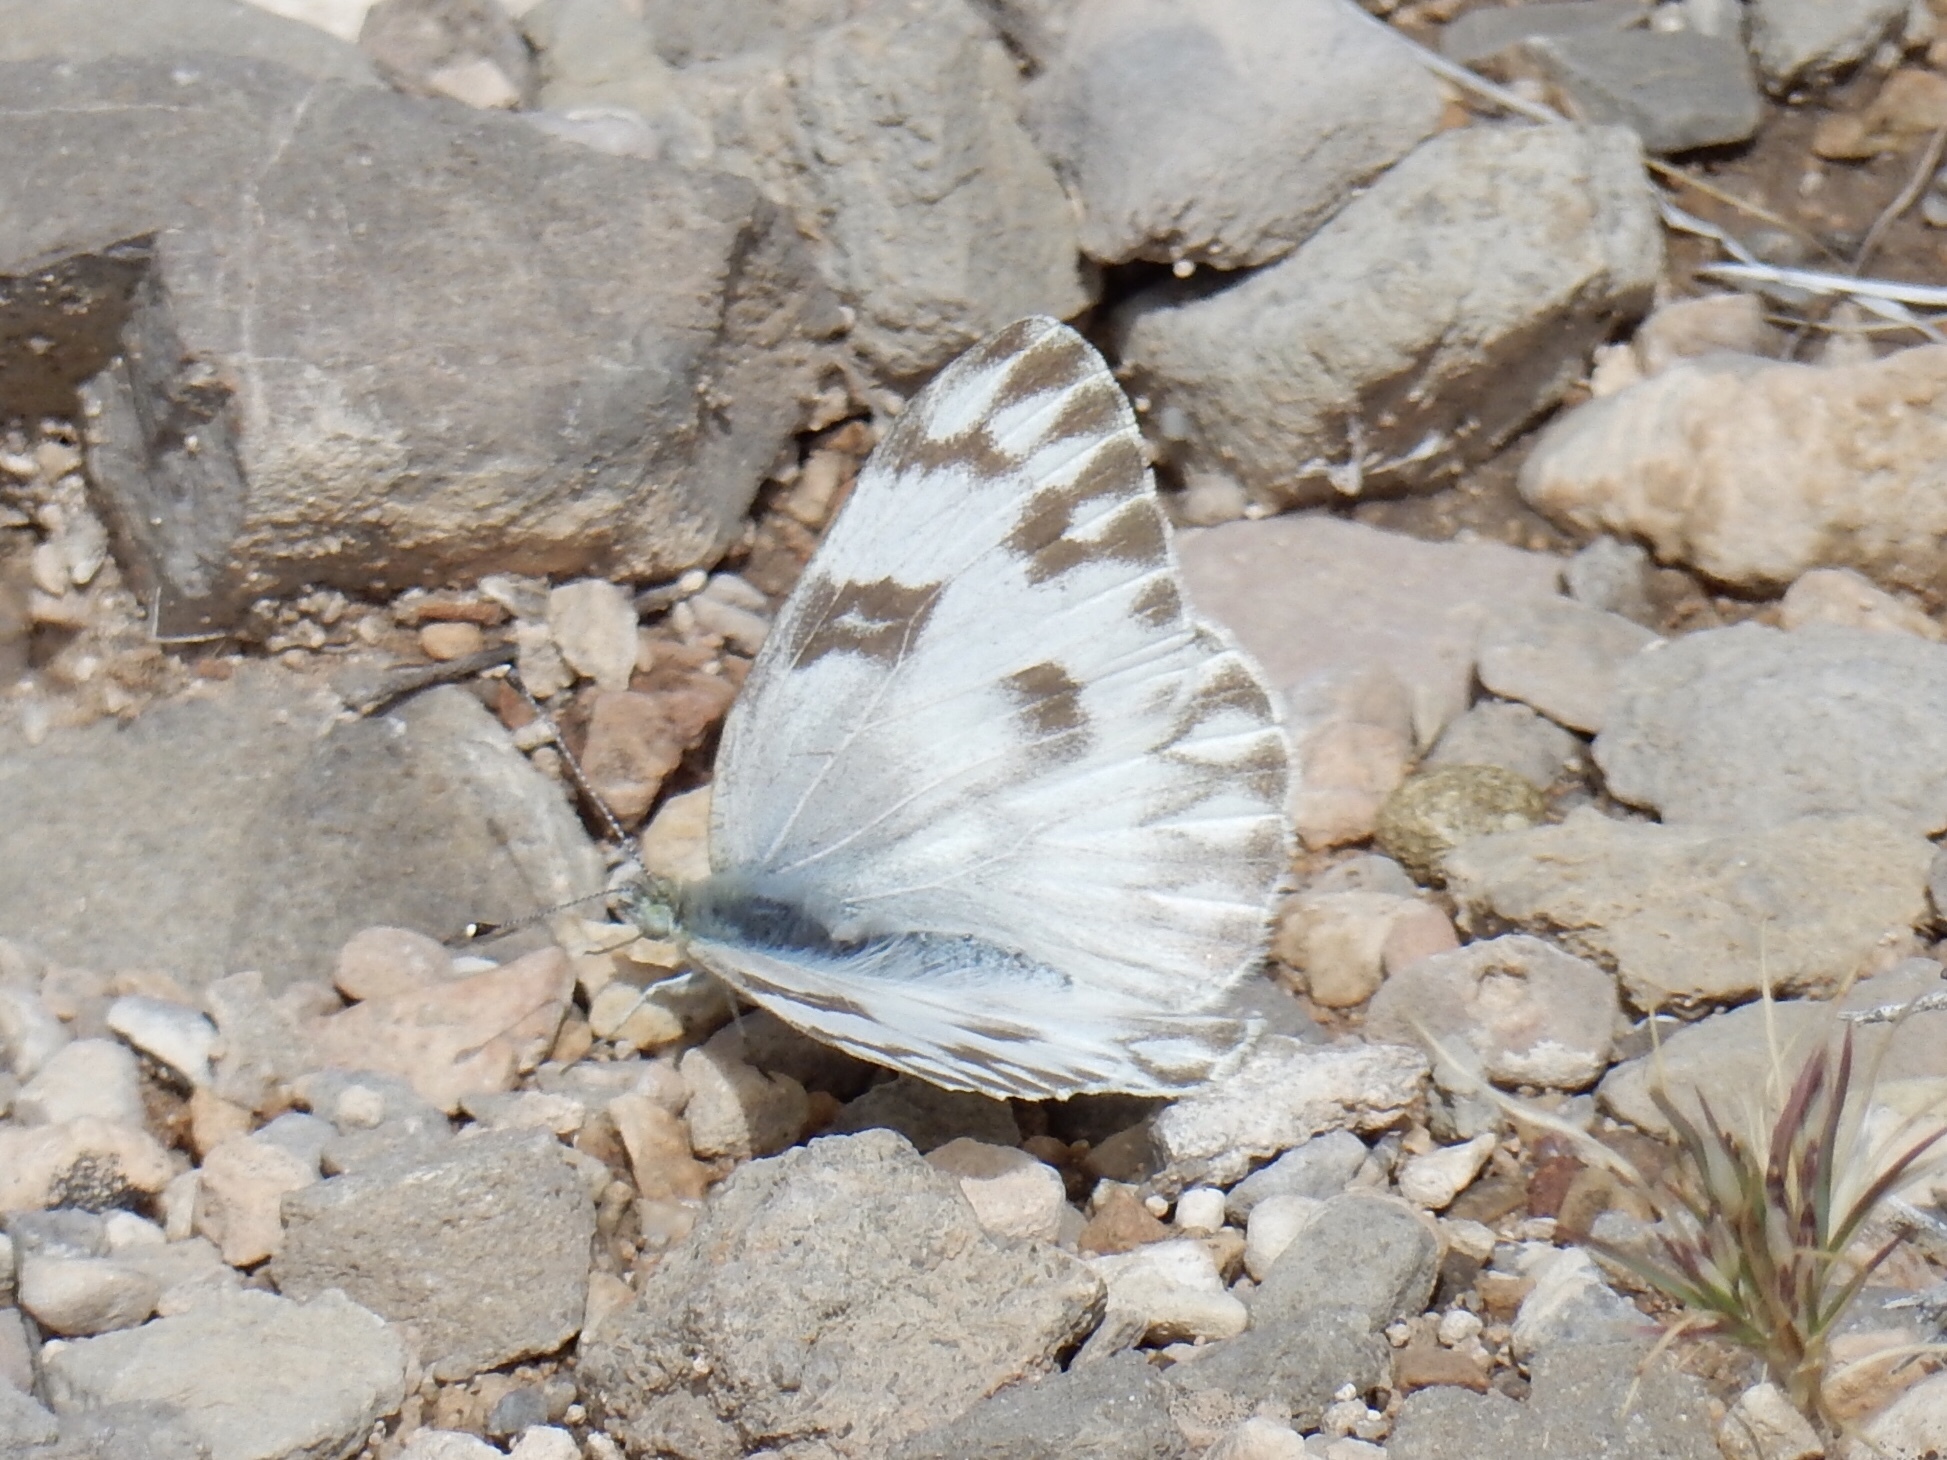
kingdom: Animalia
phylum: Arthropoda
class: Insecta
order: Lepidoptera
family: Pieridae
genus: Pontia
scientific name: Pontia protodice
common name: Checkered white
